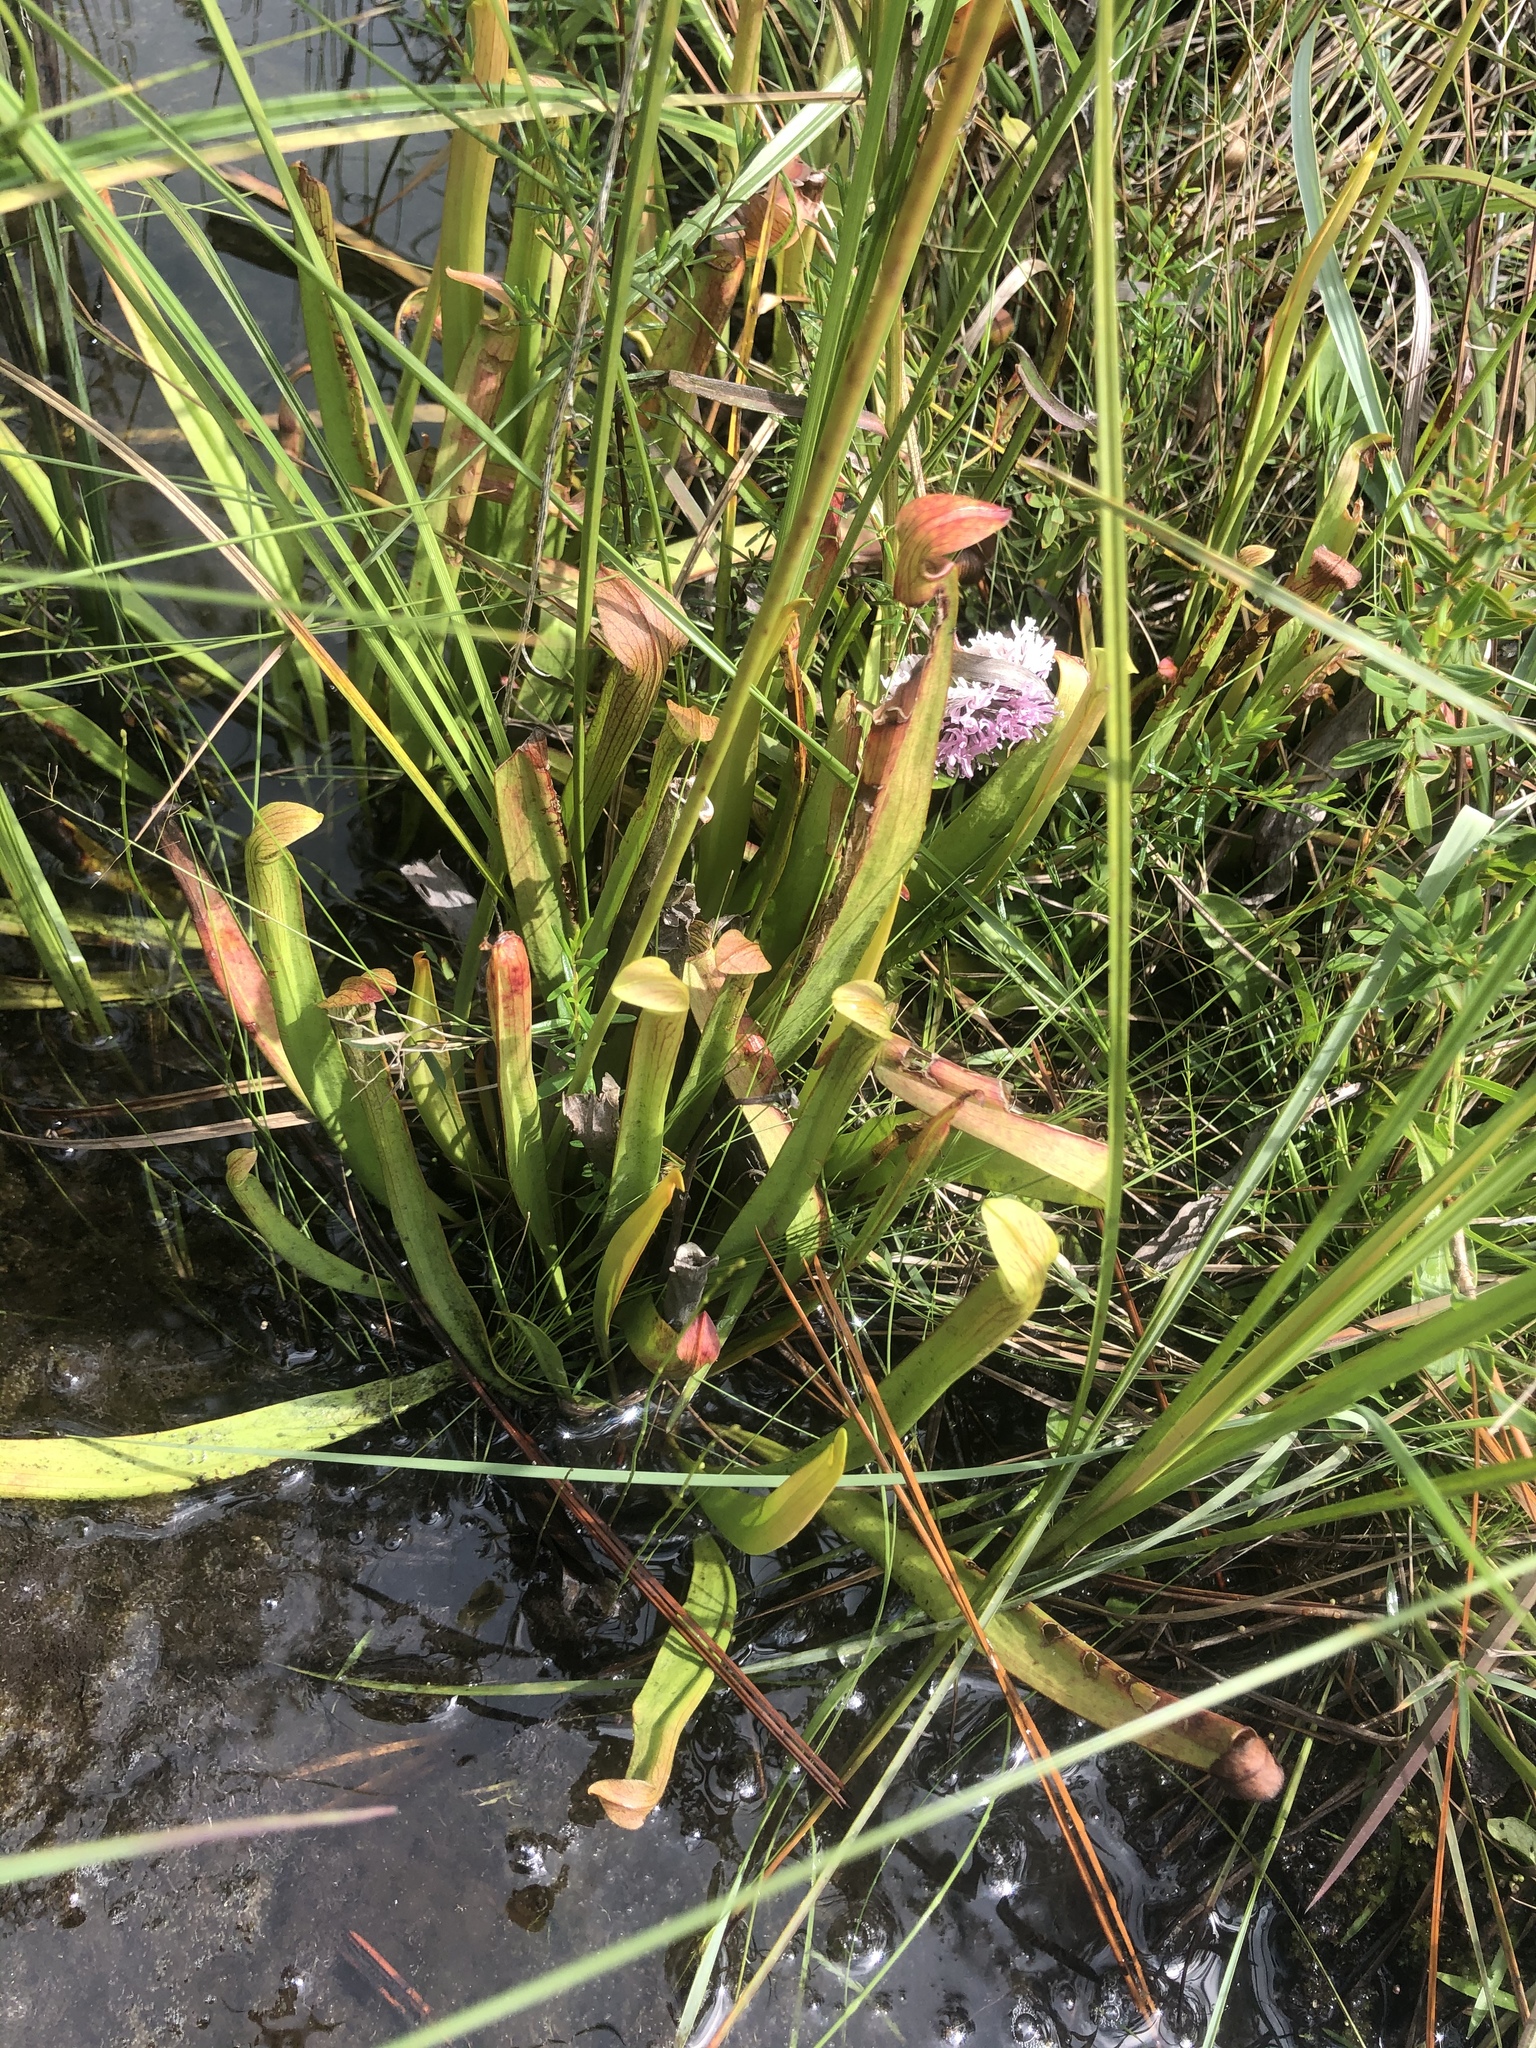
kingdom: Plantae
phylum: Tracheophyta
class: Magnoliopsida
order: Ericales
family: Sarraceniaceae
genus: Sarracenia
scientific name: Sarracenia rubra
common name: Sweet pitcherplant
